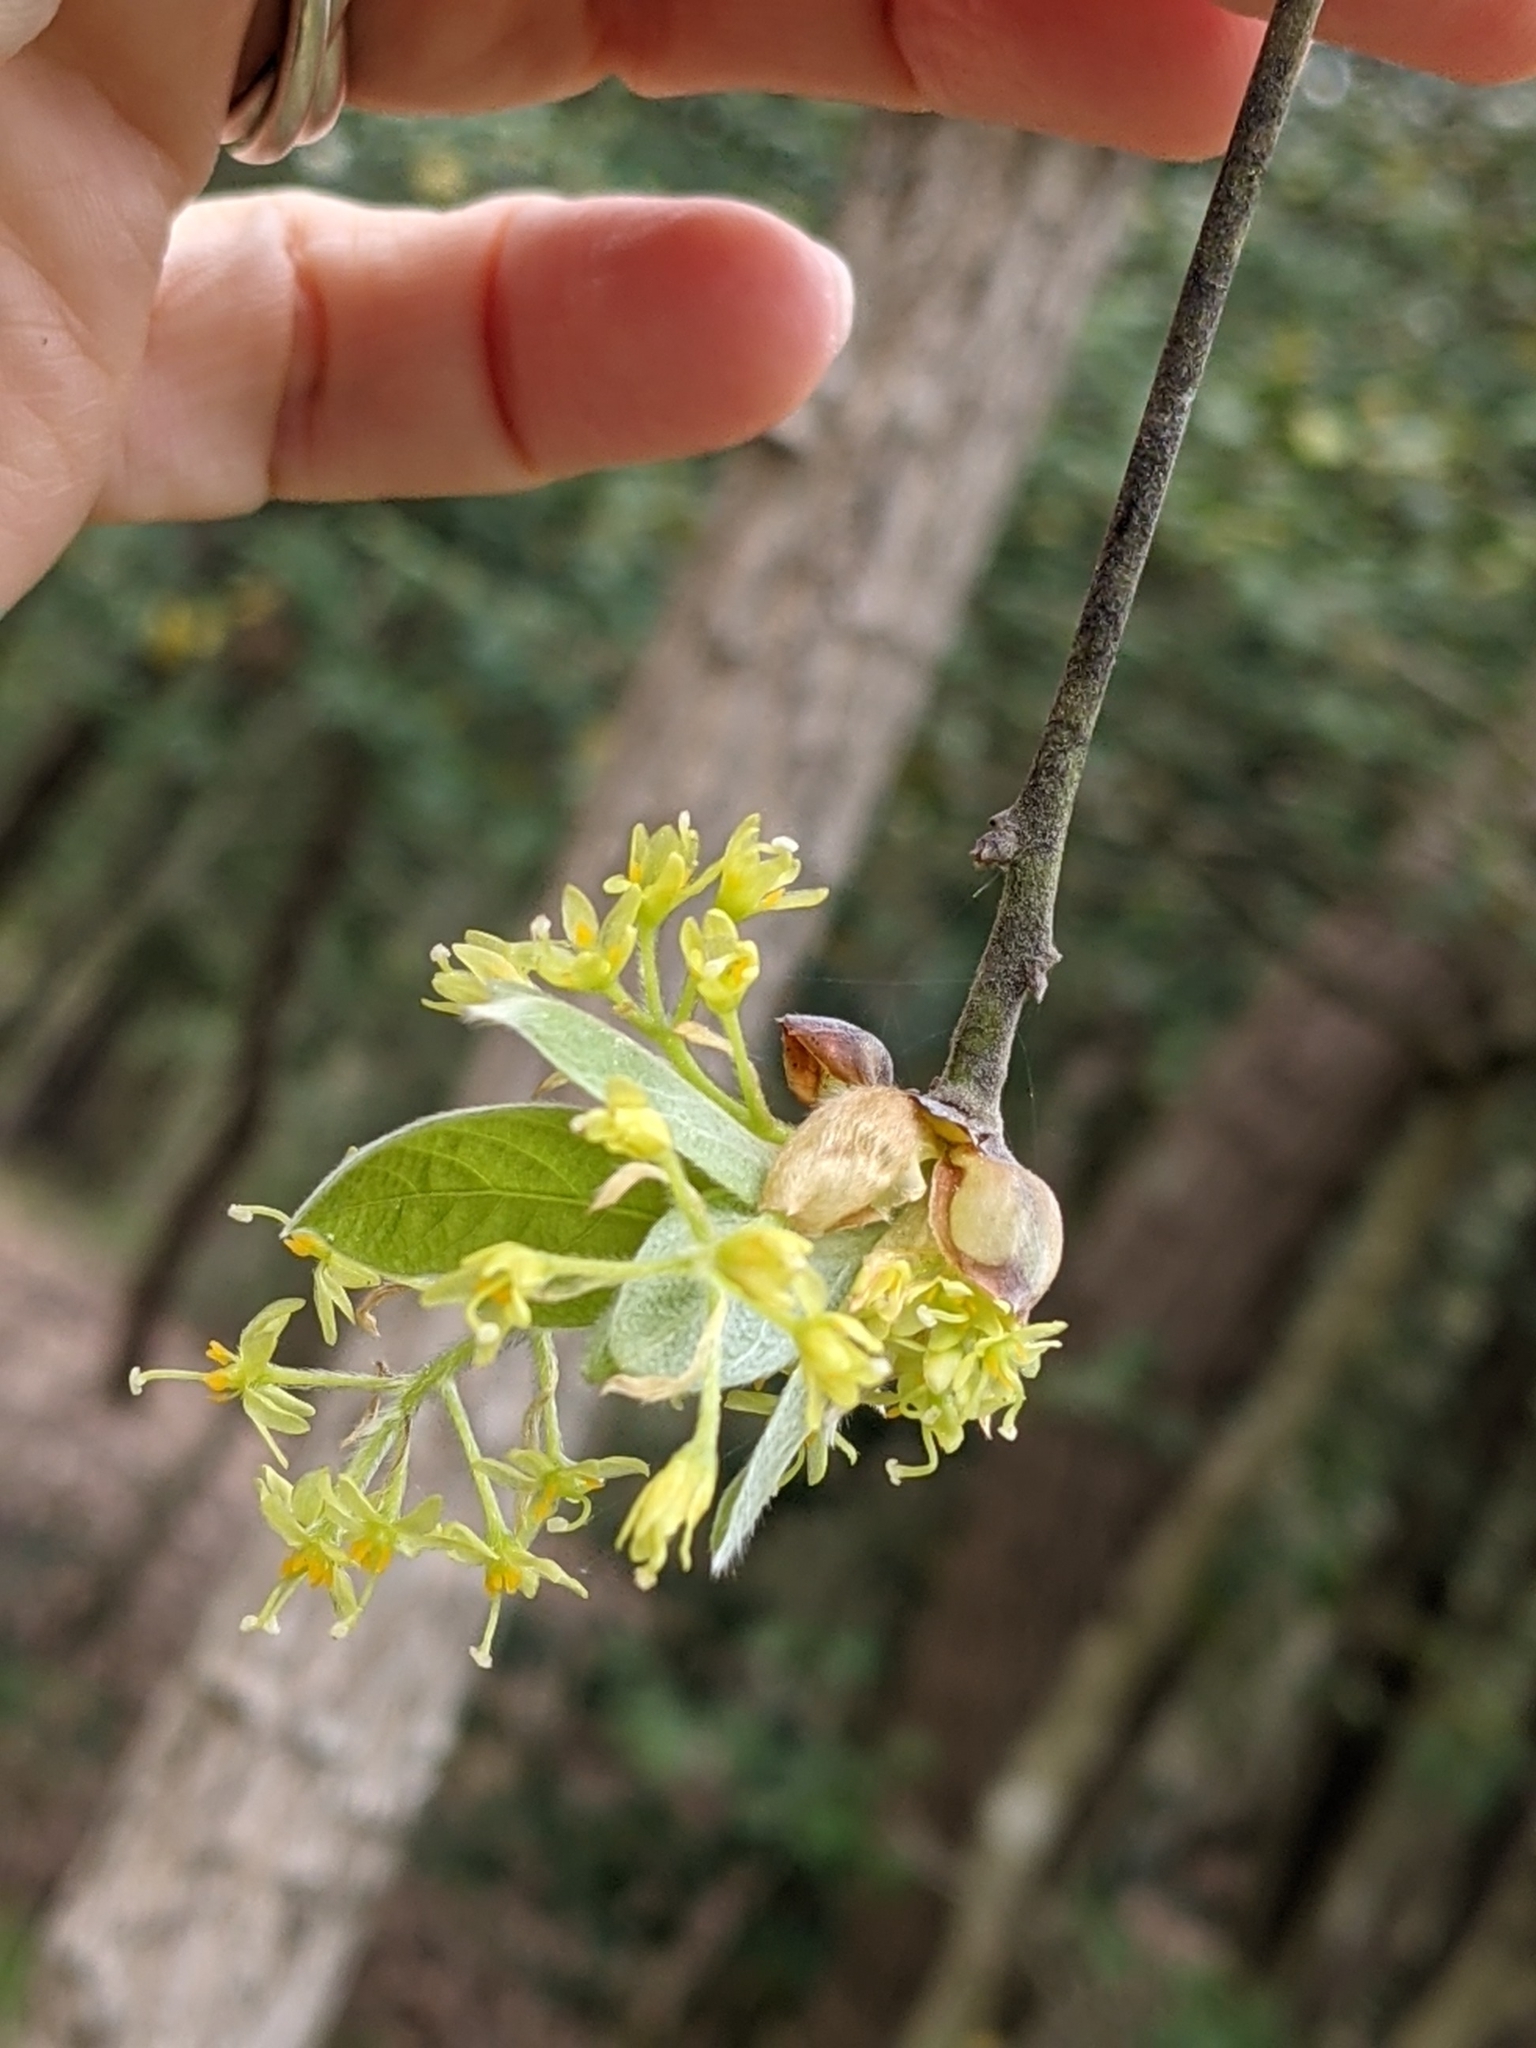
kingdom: Plantae
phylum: Tracheophyta
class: Magnoliopsida
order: Laurales
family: Lauraceae
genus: Sassafras
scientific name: Sassafras albidum
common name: Sassafras
